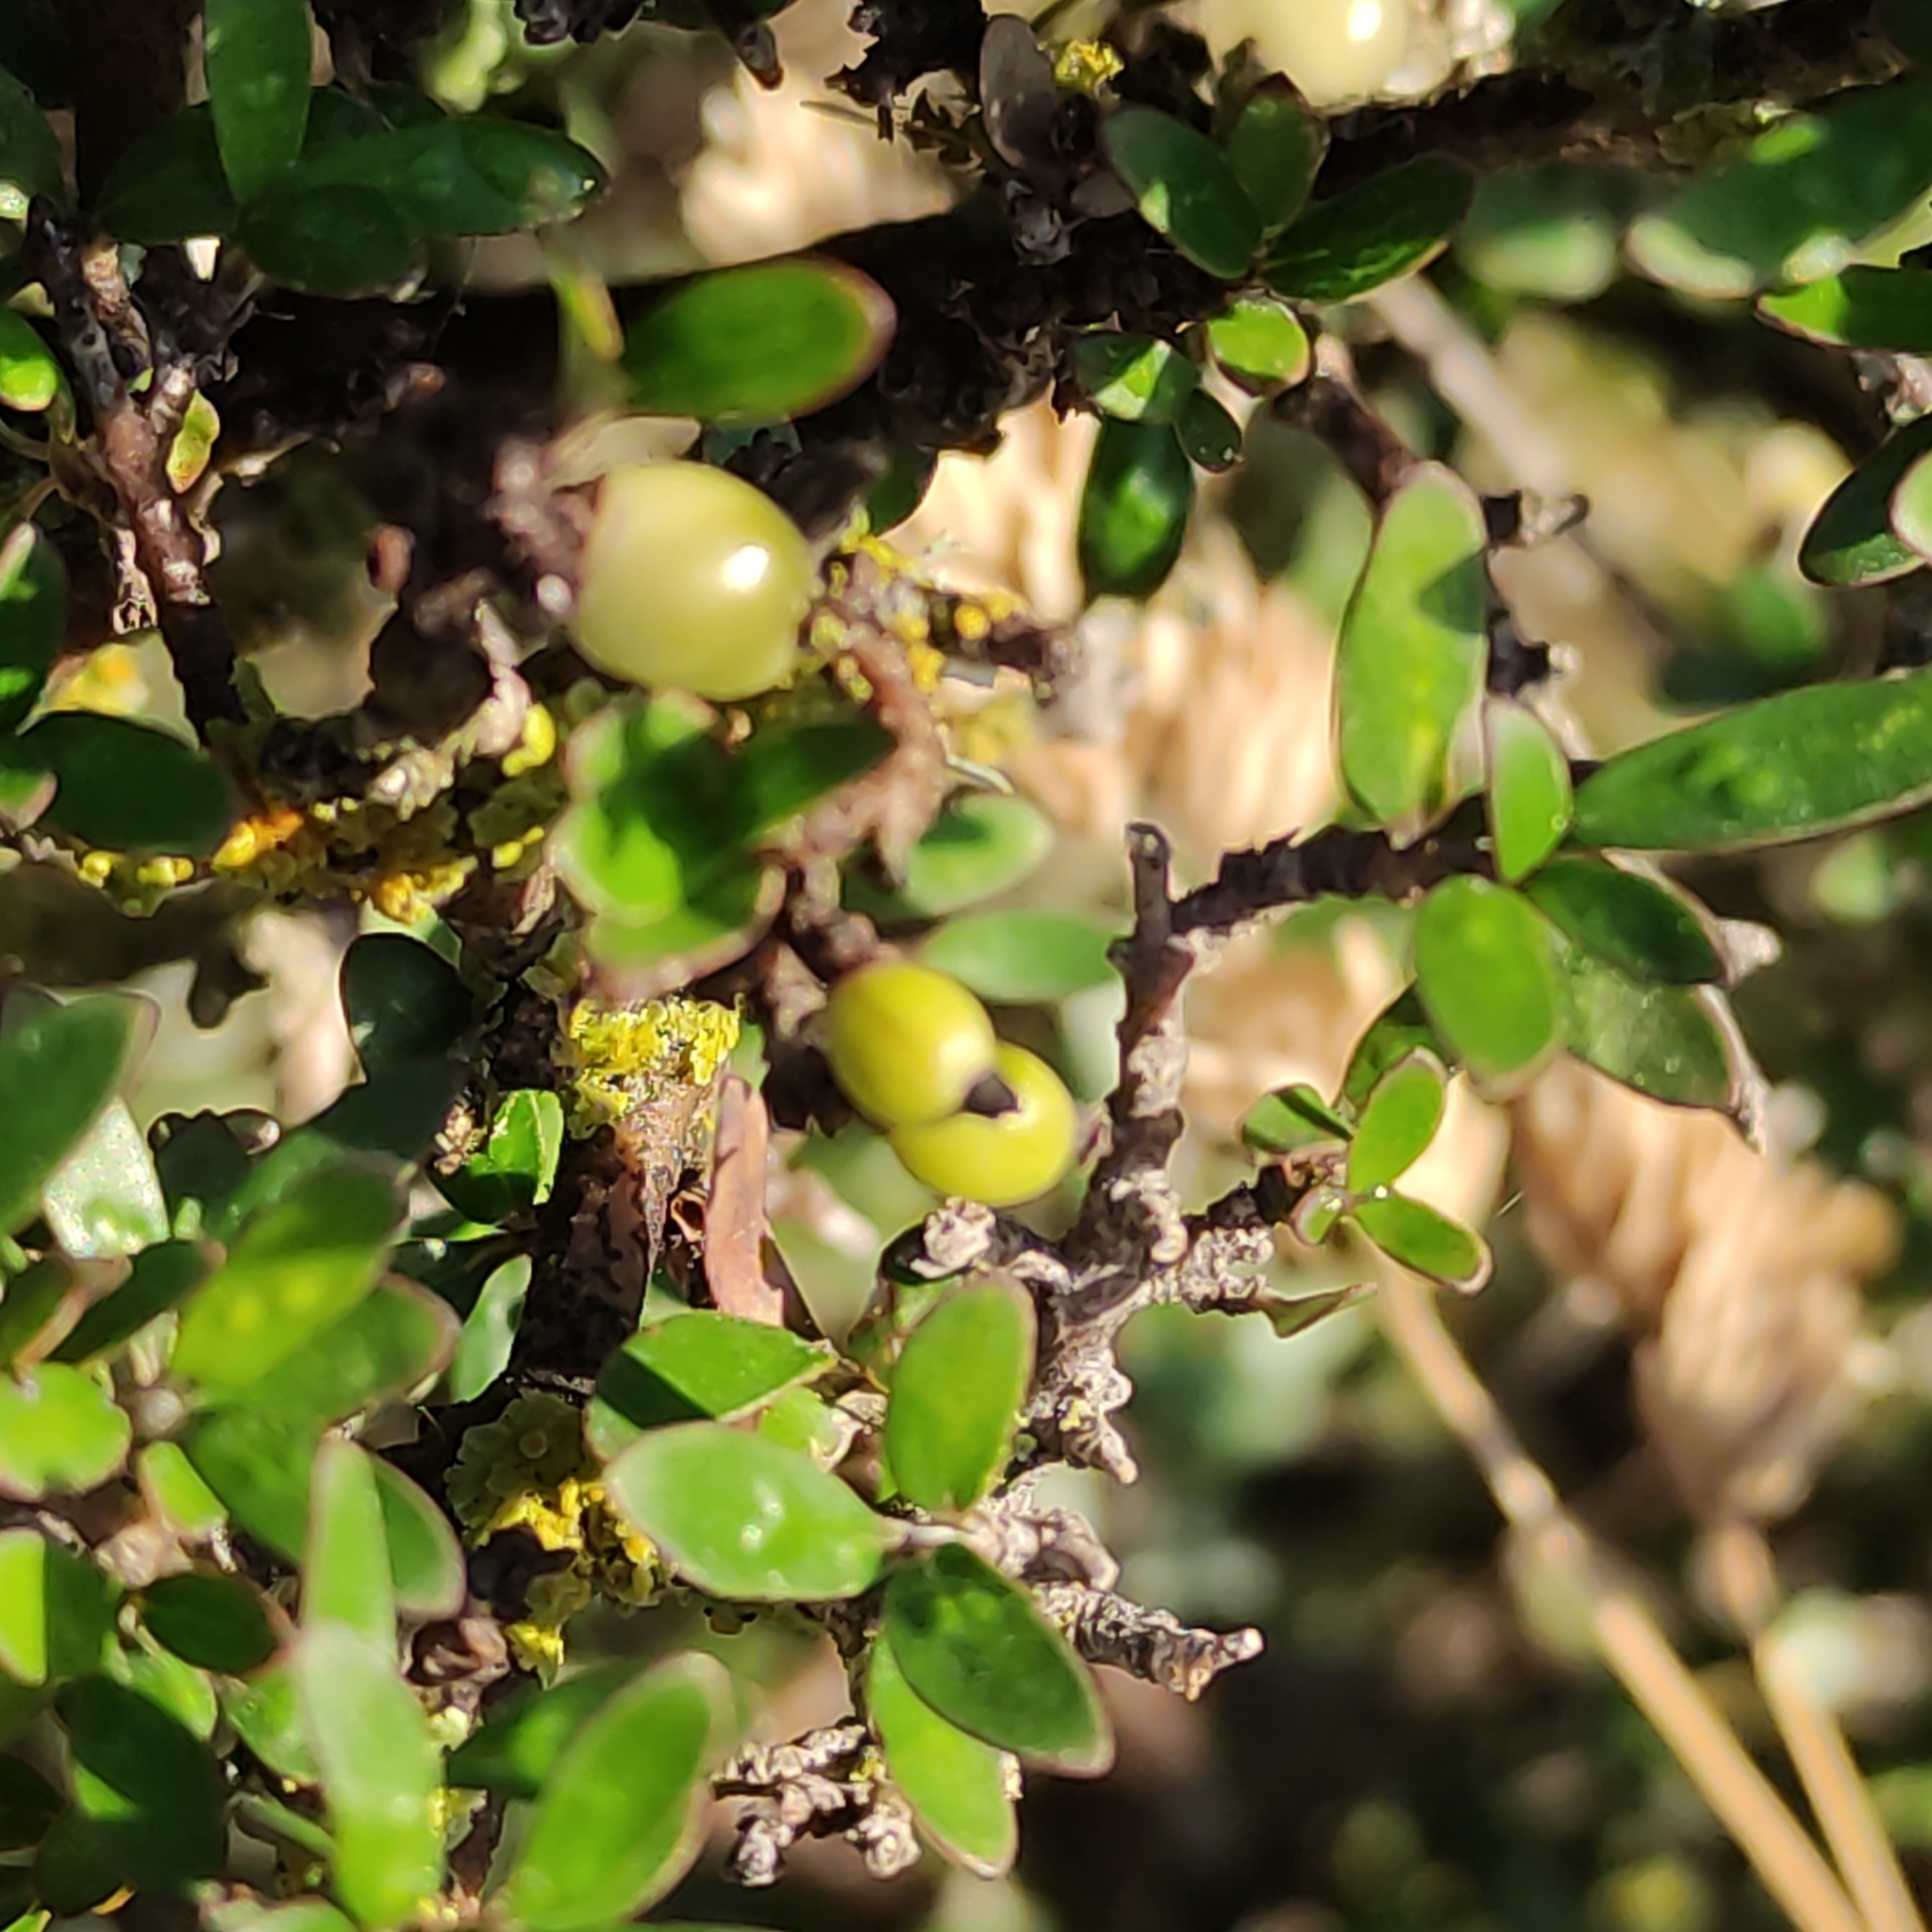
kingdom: Plantae
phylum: Tracheophyta
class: Magnoliopsida
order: Gentianales
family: Rubiaceae
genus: Coprosma
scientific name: Coprosma propinqua
